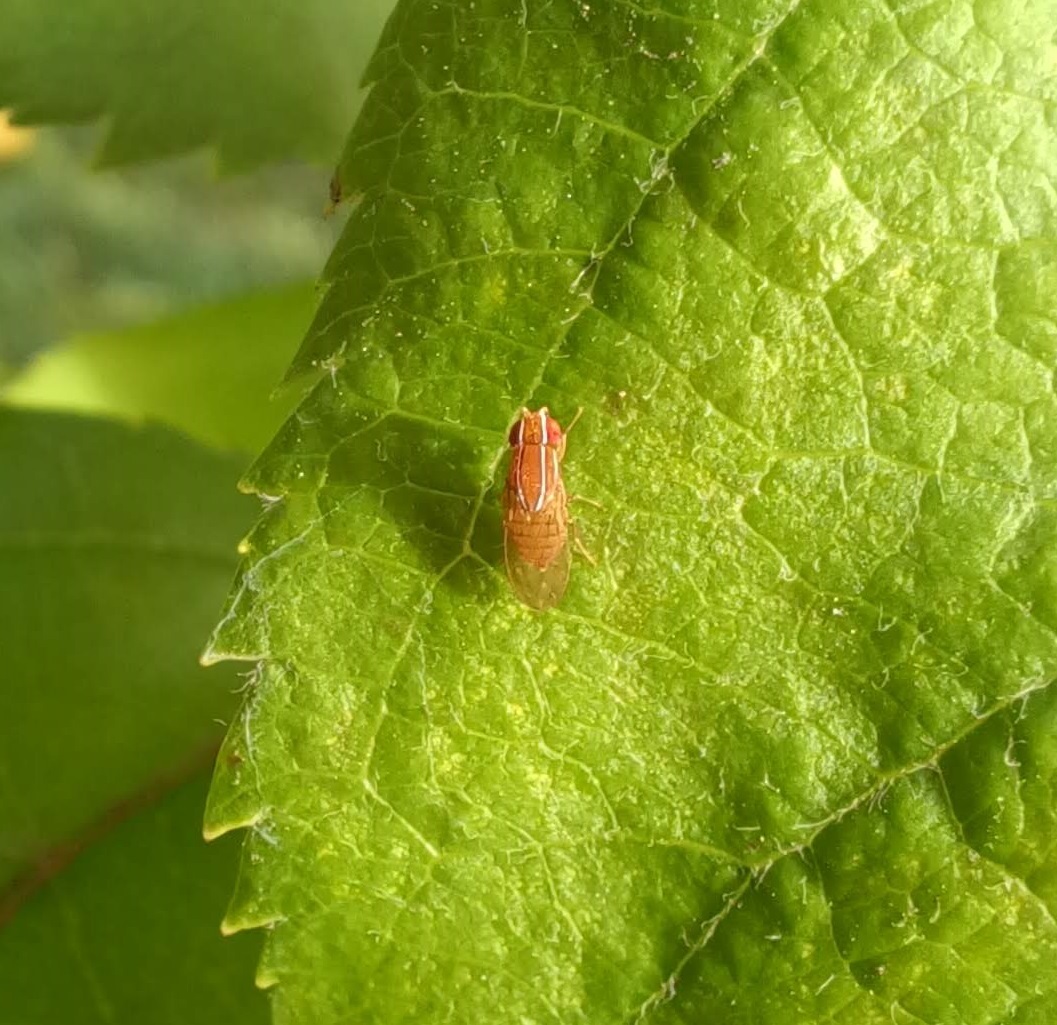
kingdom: Animalia
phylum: Arthropoda
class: Insecta
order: Diptera
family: Drosophilidae
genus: Zaprionus
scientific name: Zaprionus indianus
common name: African fig fly
